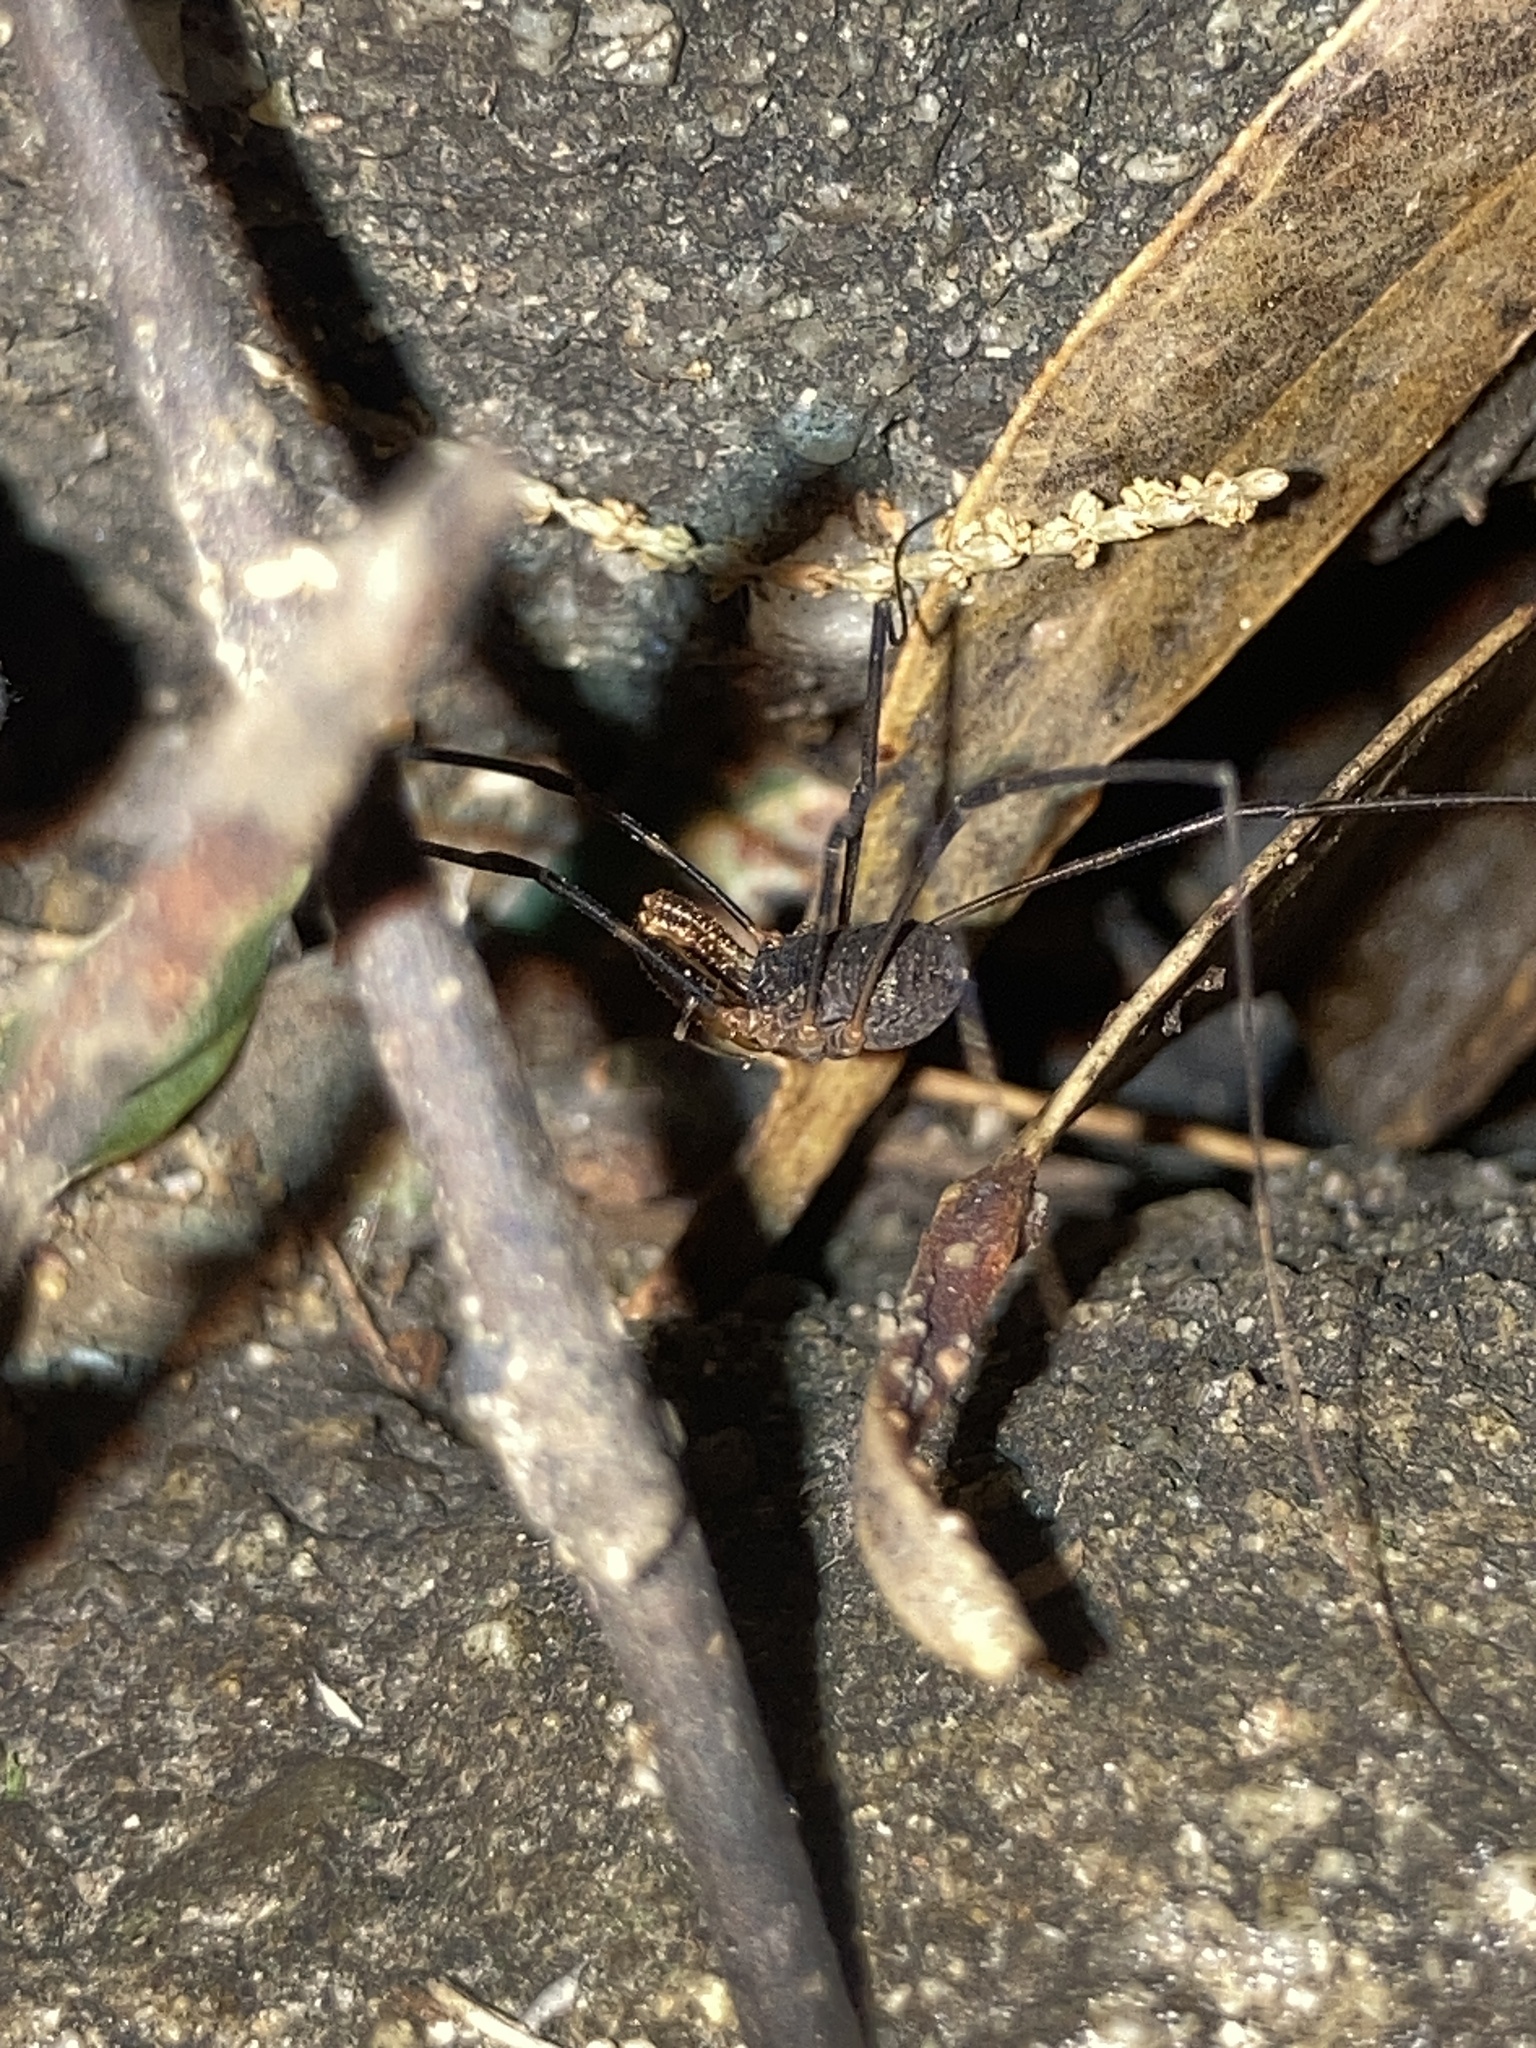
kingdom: Animalia
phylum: Arthropoda
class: Arachnida
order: Opiliones
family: Neopilionidae
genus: Megalopsalis
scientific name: Megalopsalis caeruleomontium
